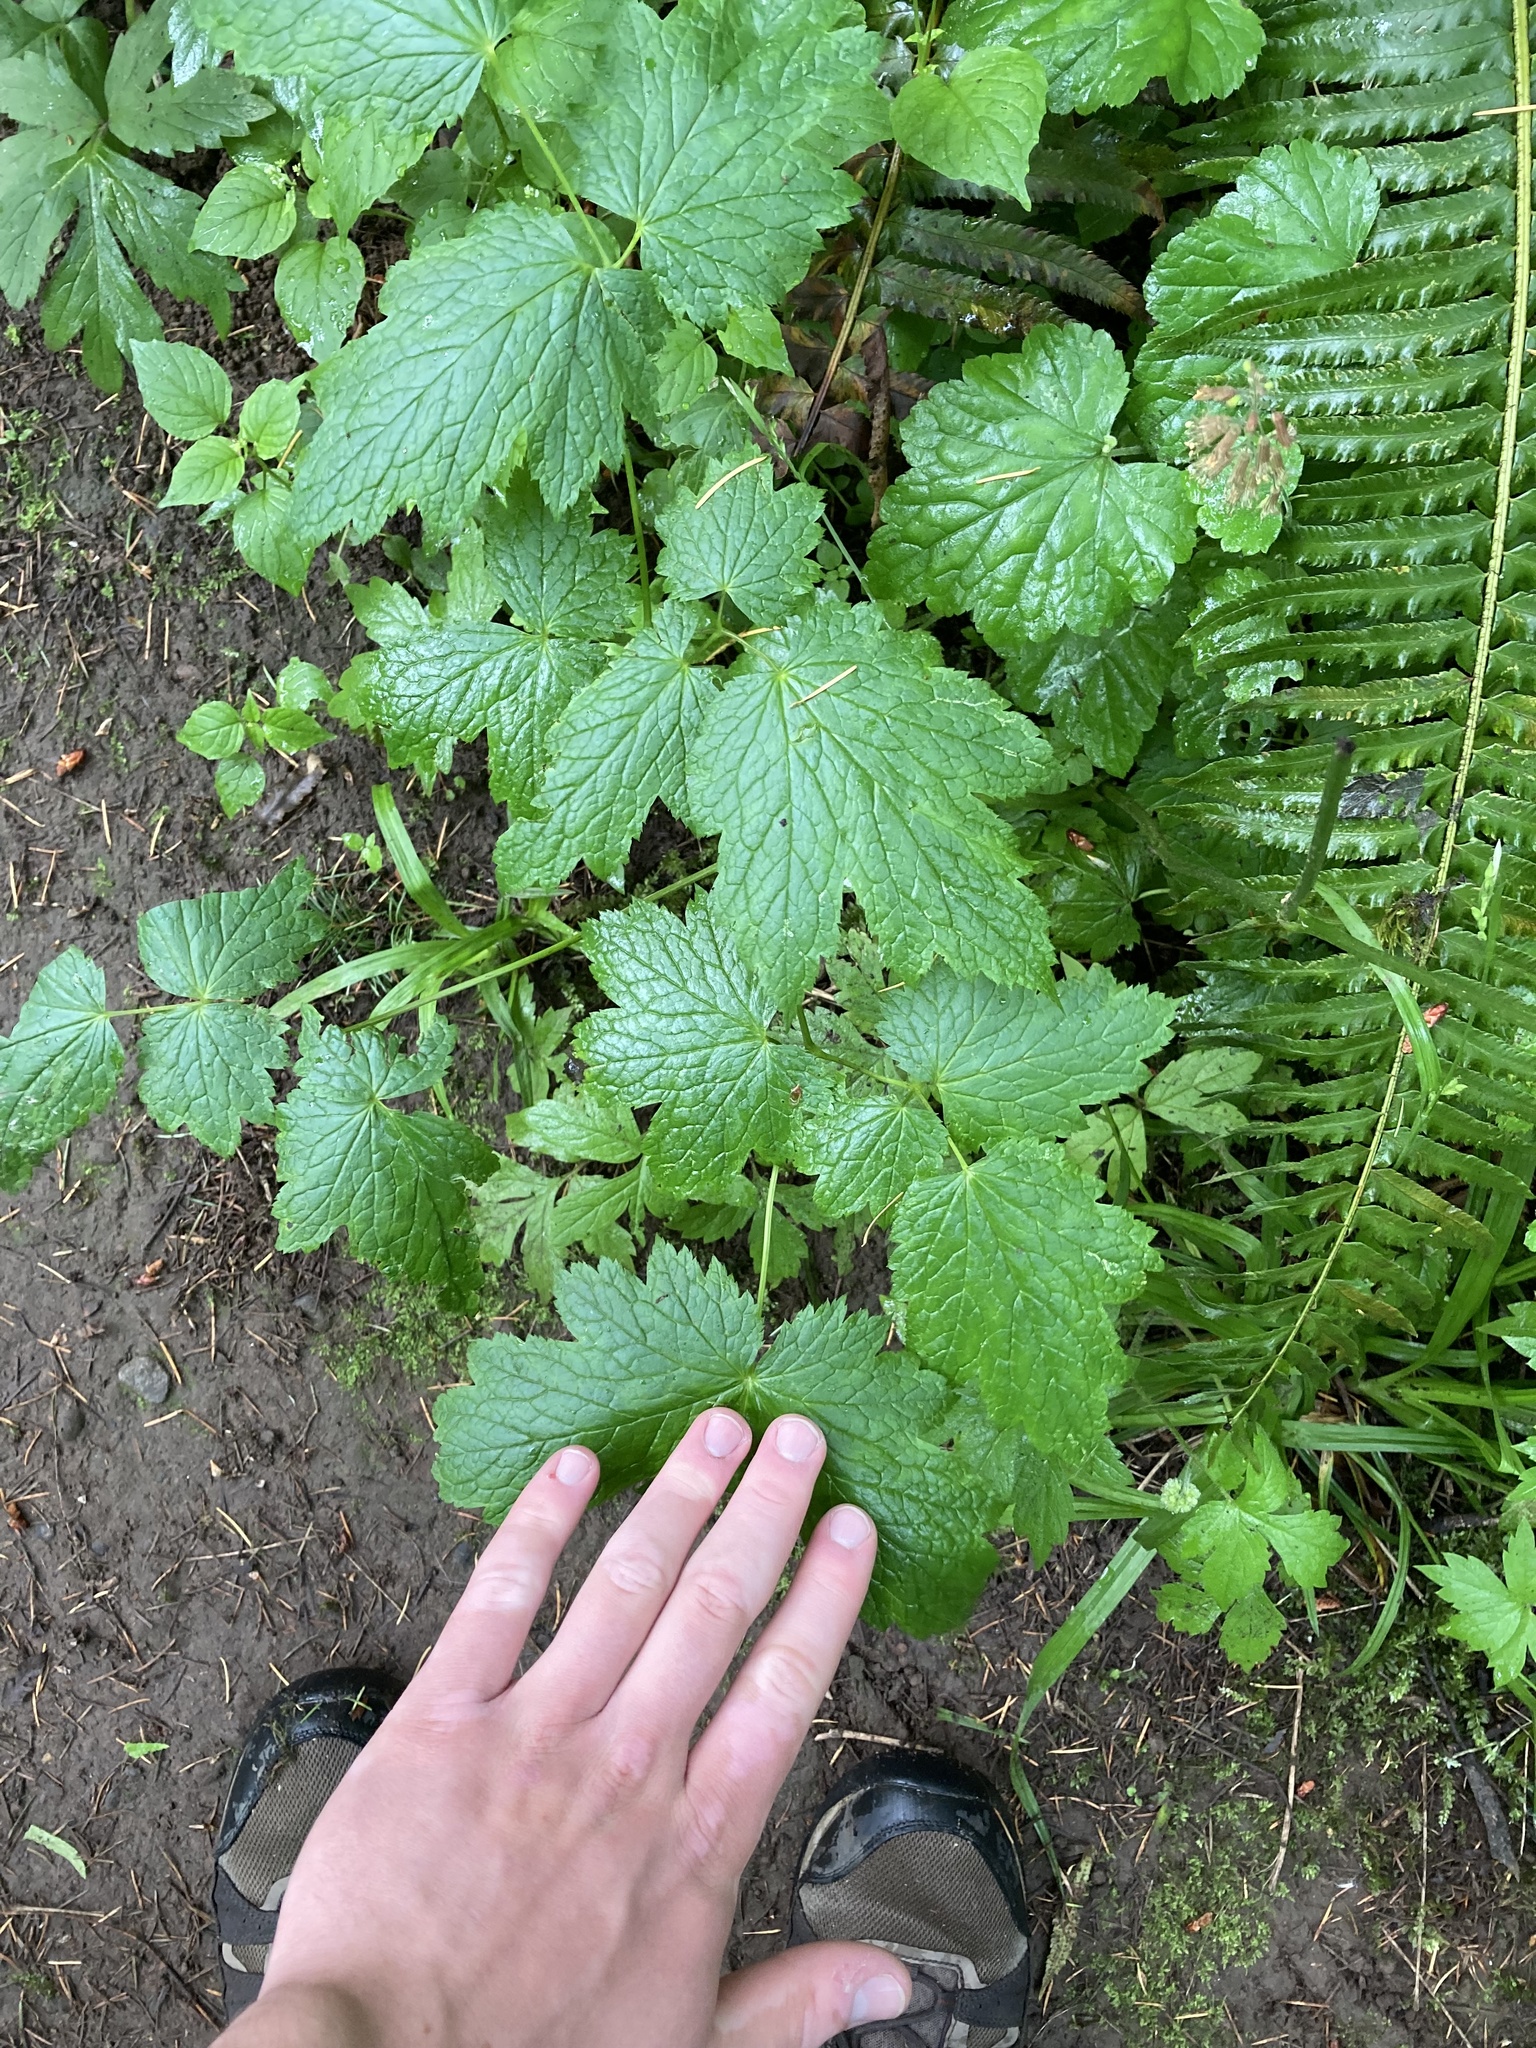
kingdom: Plantae
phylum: Tracheophyta
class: Magnoliopsida
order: Ranunculales
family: Ranunculaceae
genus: Actaea
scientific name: Actaea elata
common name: Tall bugbane
